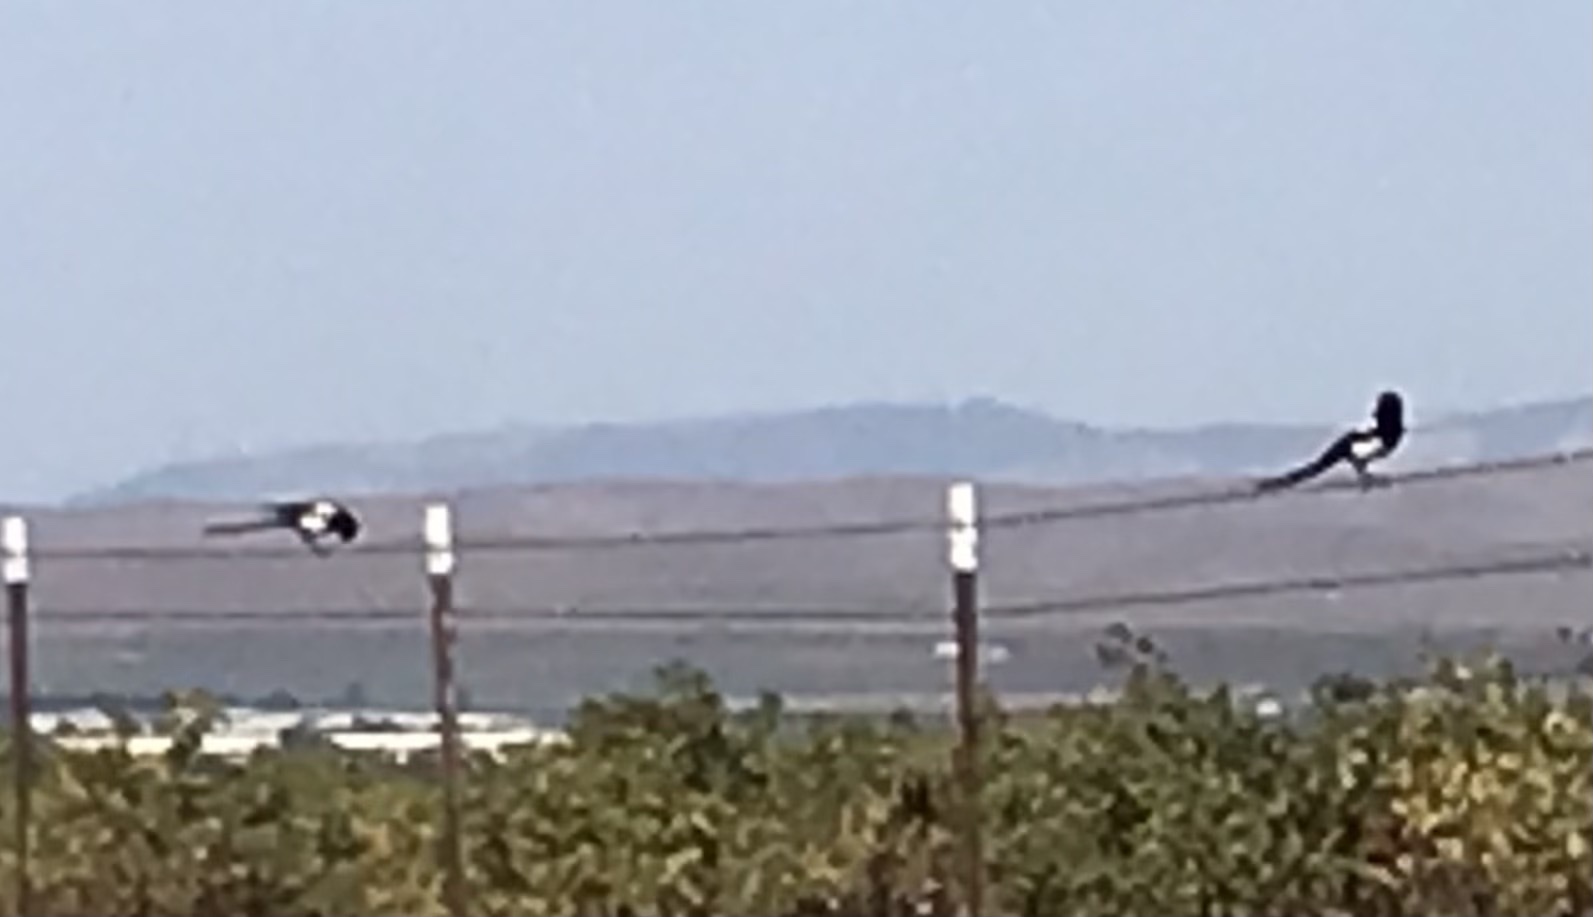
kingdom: Animalia
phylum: Chordata
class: Aves
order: Passeriformes
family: Corvidae
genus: Pica
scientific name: Pica nuttalli
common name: Yellow-billed magpie
